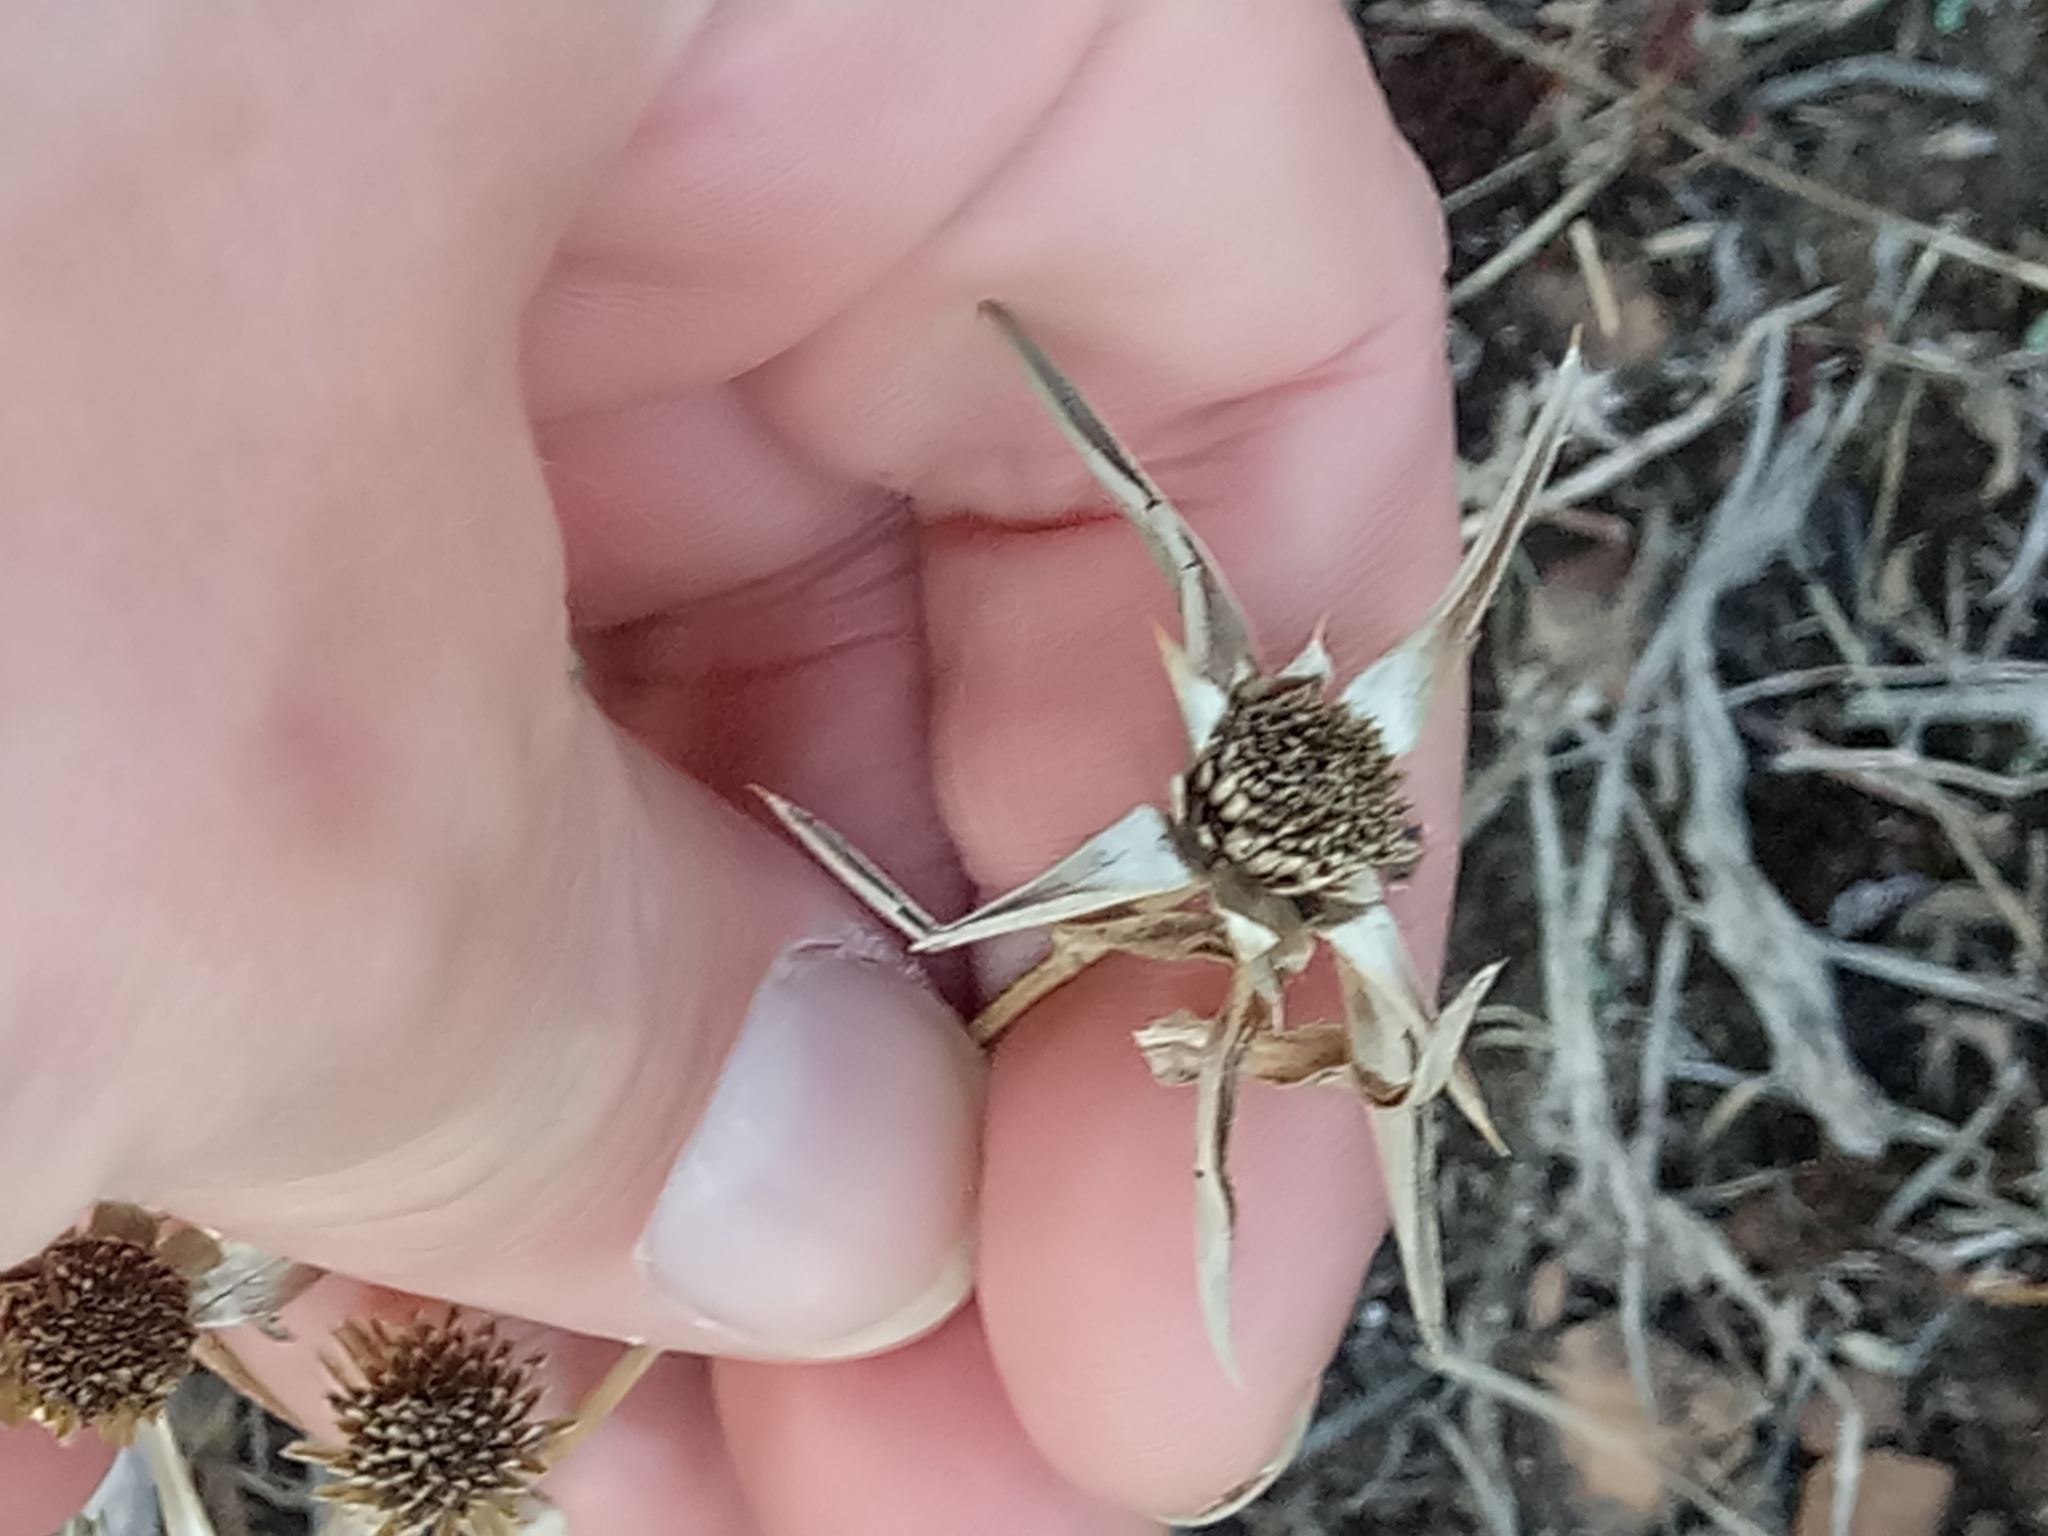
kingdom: Plantae
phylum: Tracheophyta
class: Magnoliopsida
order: Asterales
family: Asteraceae
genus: Pallenis
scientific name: Pallenis spinosa
